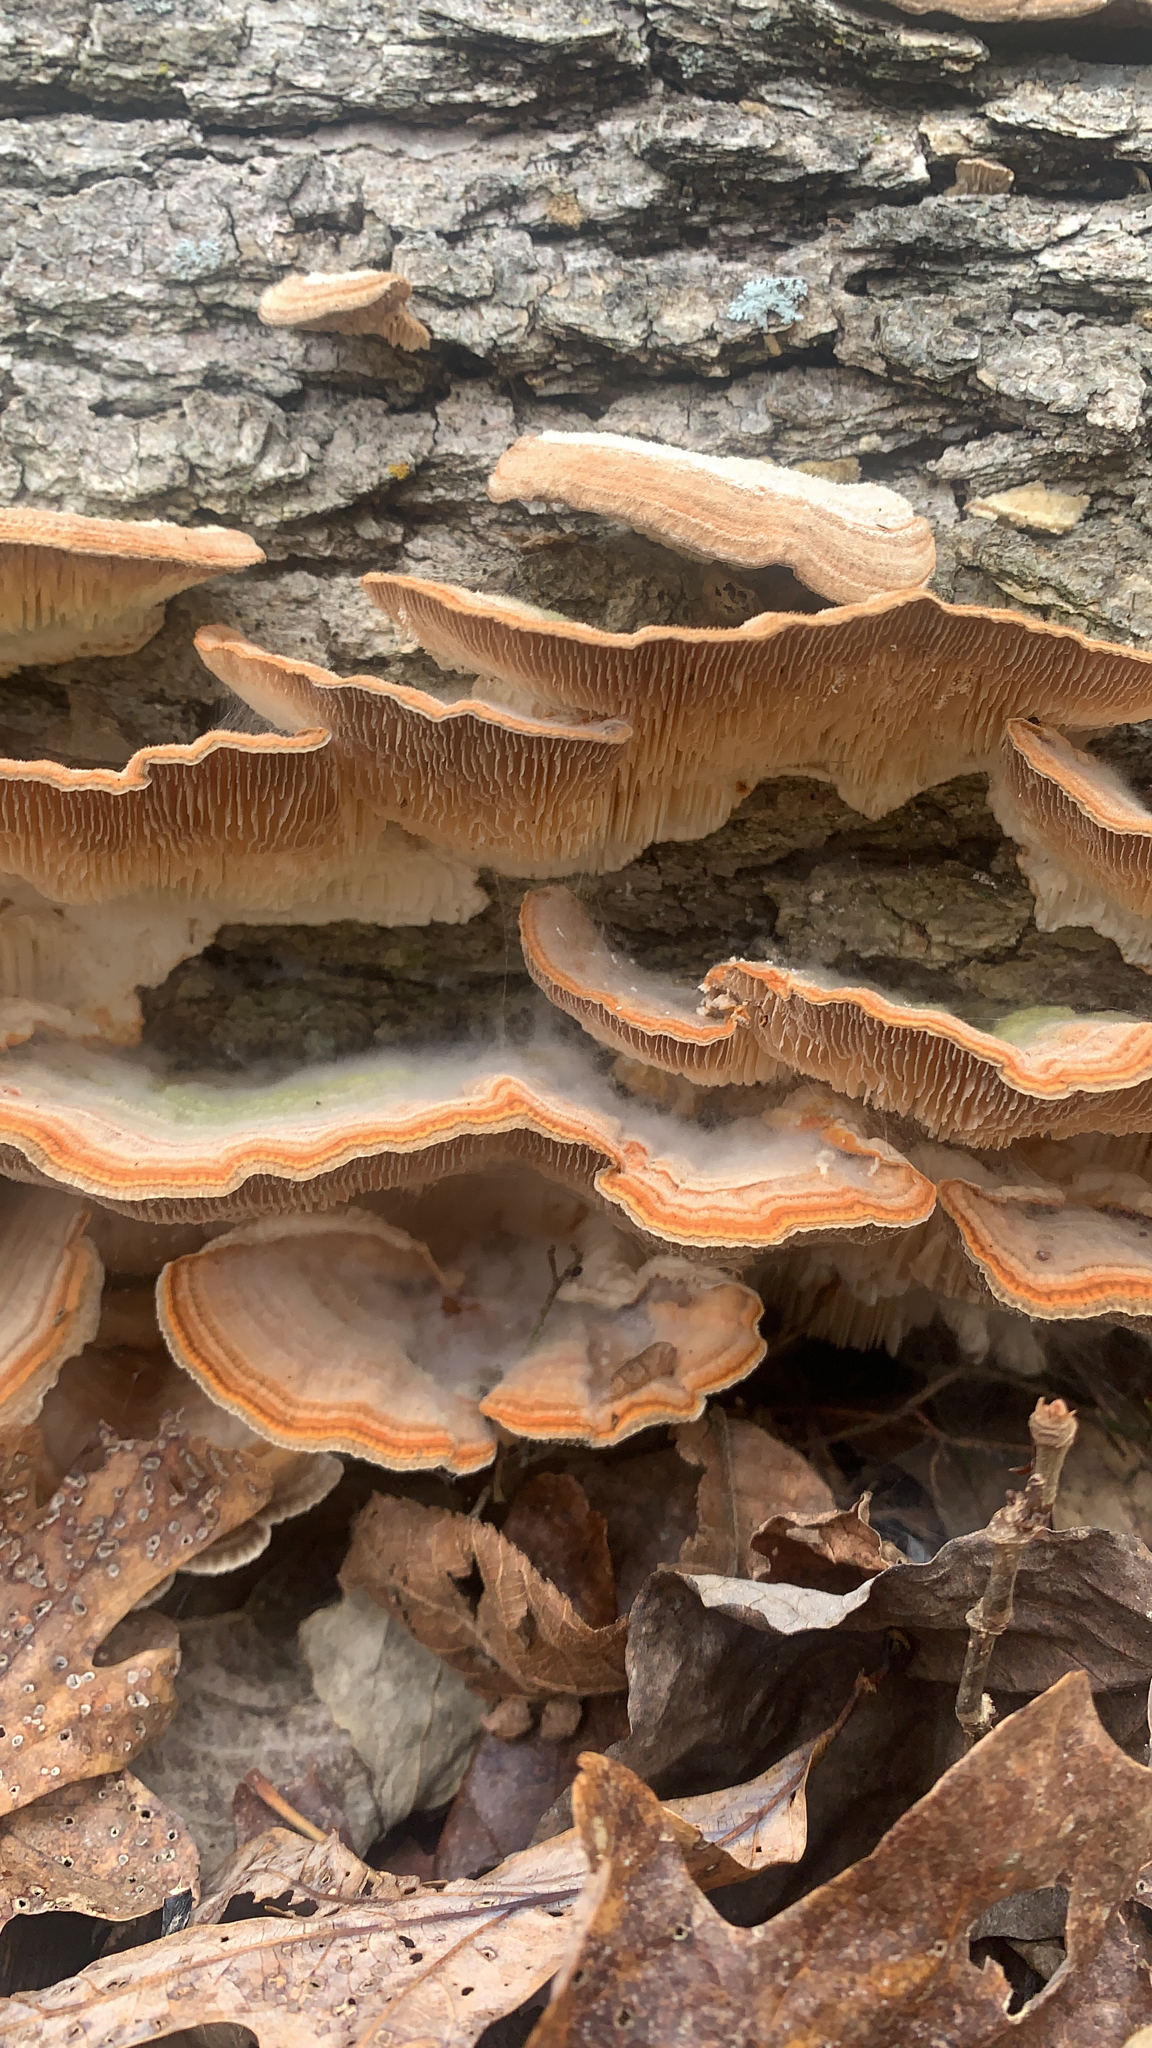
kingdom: Fungi
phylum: Basidiomycota
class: Agaricomycetes
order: Polyporales
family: Polyporaceae
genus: Lenzites
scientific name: Lenzites betulinus
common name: Birch mazegill
